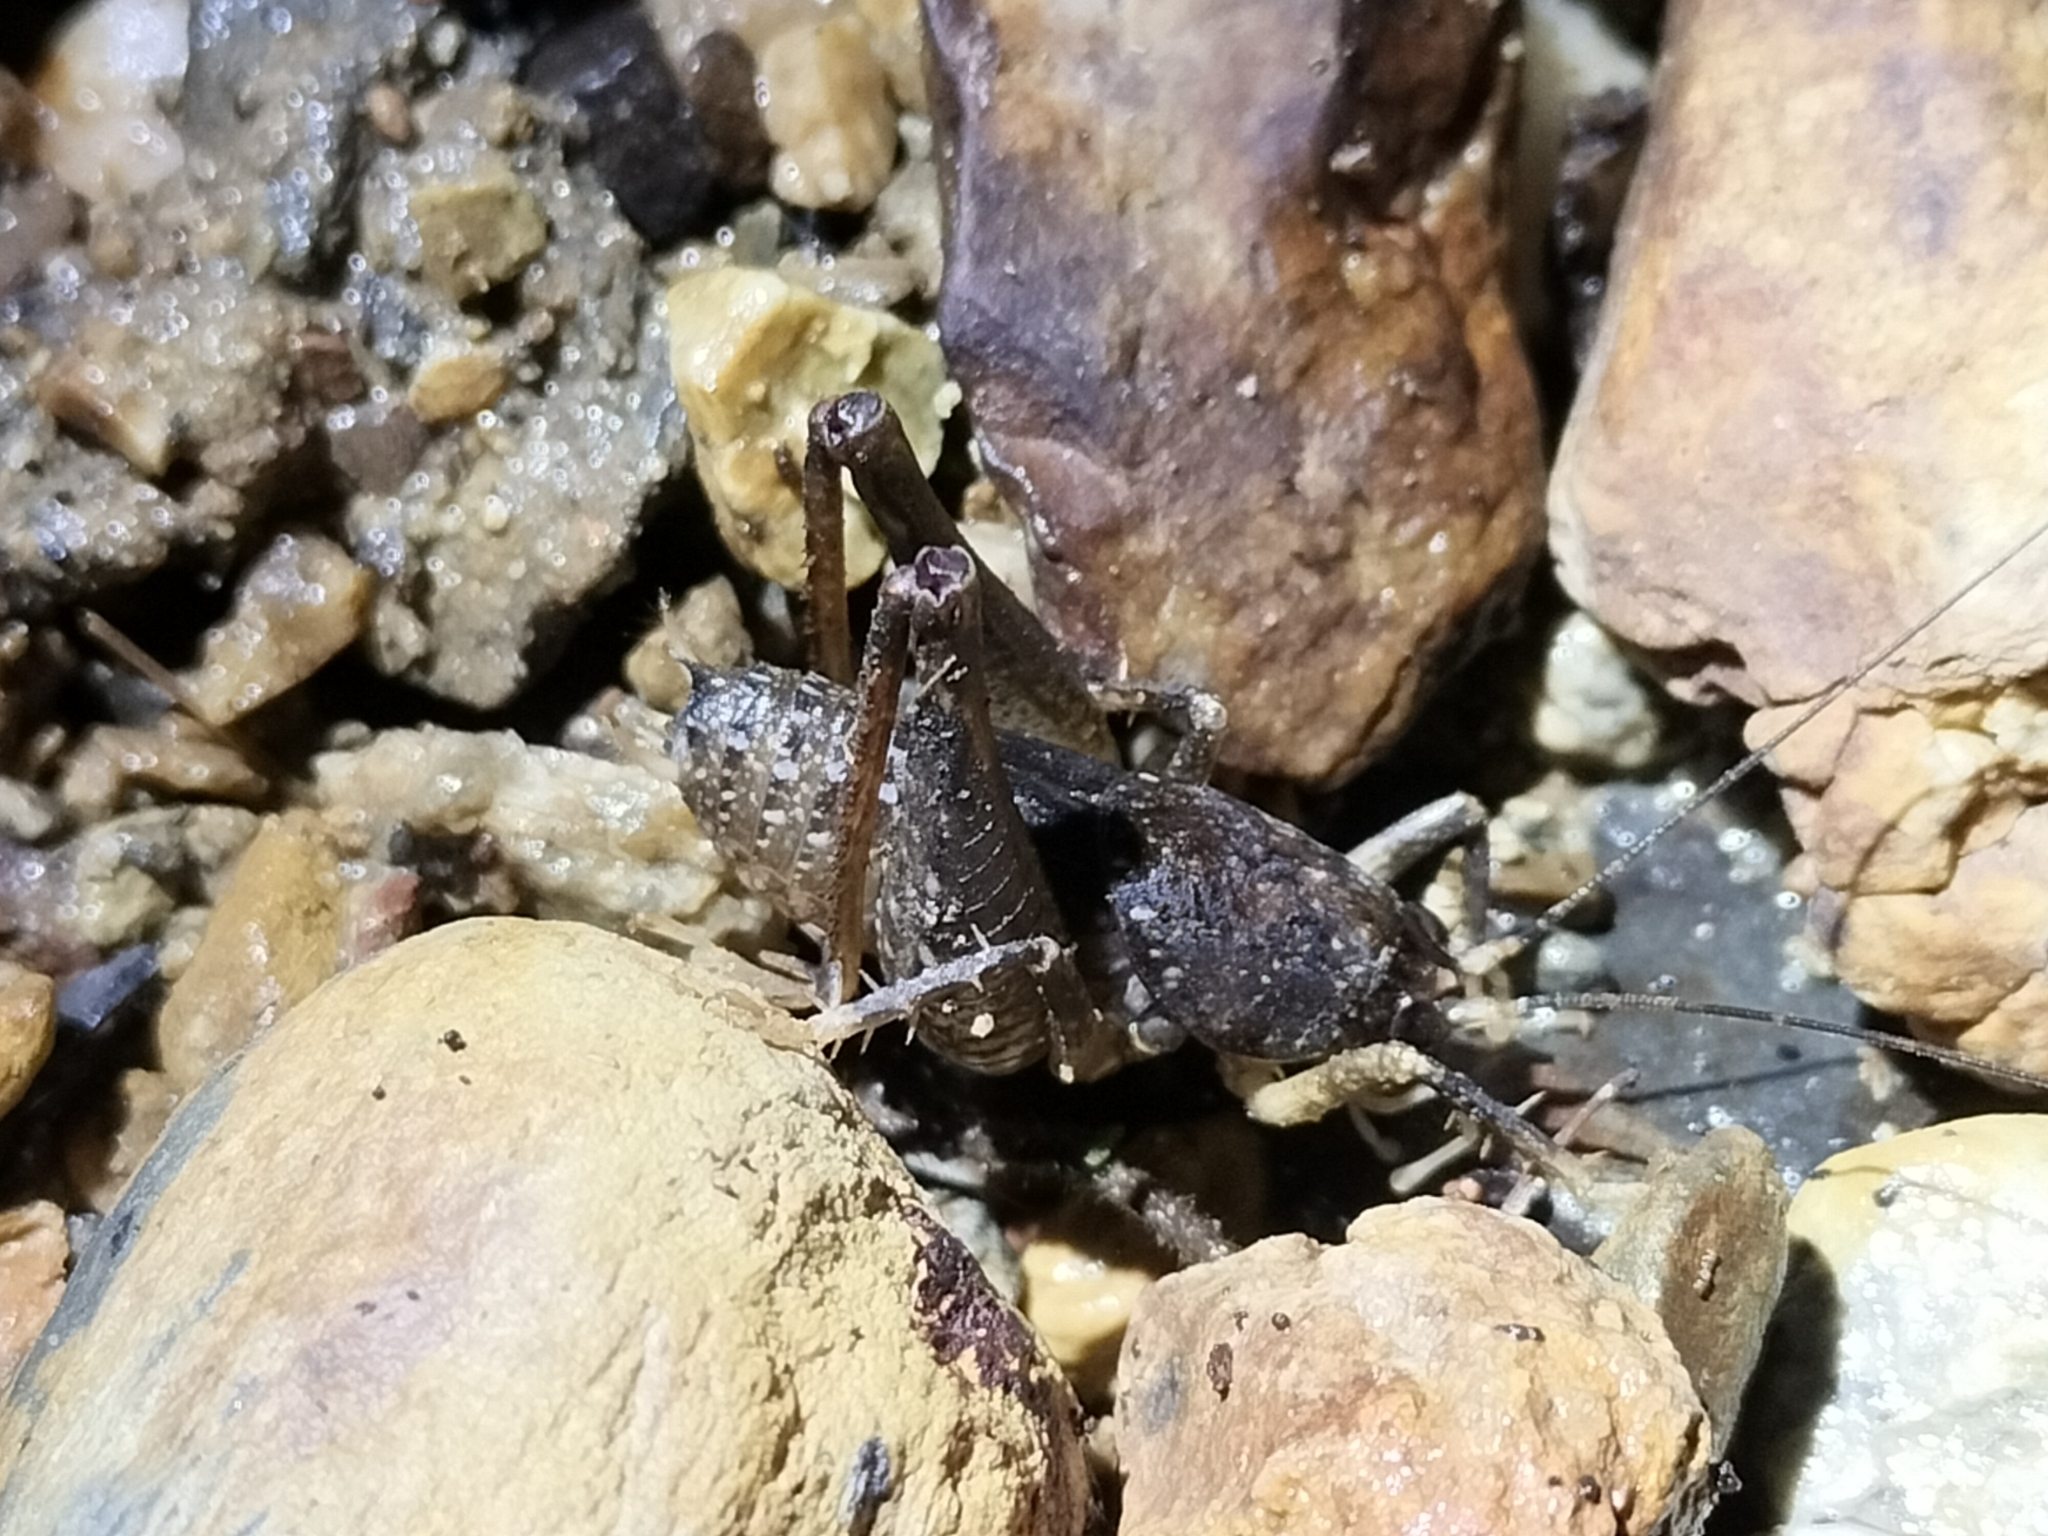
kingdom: Animalia
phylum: Arthropoda
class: Insecta
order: Orthoptera
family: Anostostomatidae
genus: Transaevum
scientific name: Transaevum laudatum
